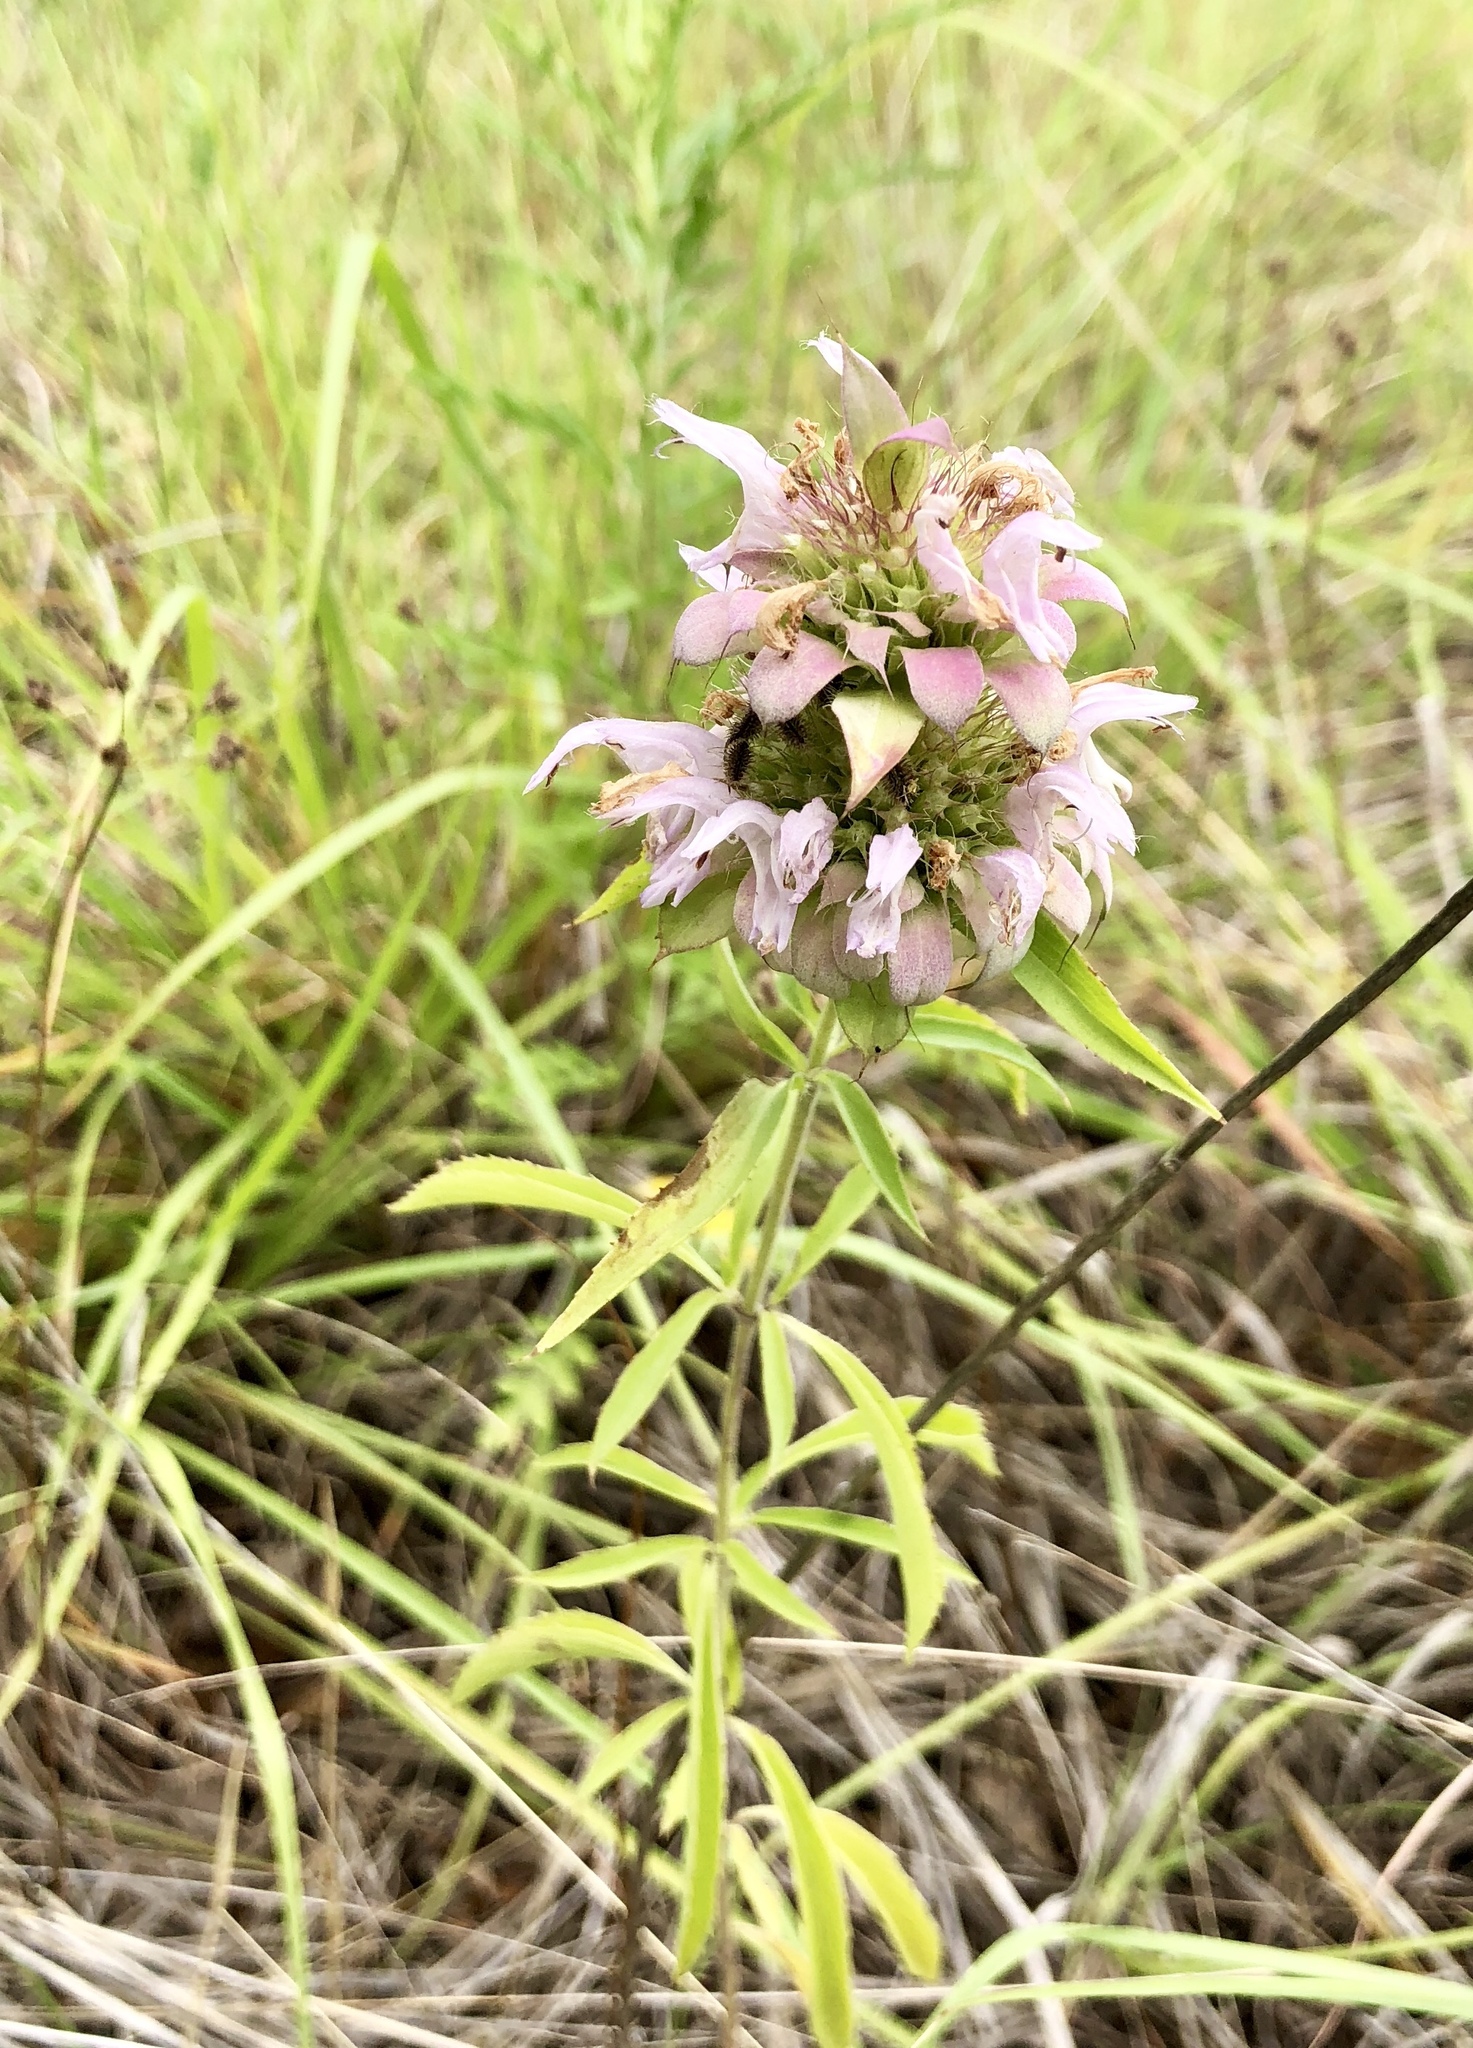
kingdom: Plantae
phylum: Tracheophyta
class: Magnoliopsida
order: Lamiales
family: Lamiaceae
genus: Monarda
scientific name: Monarda citriodora
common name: Lemon beebalm
